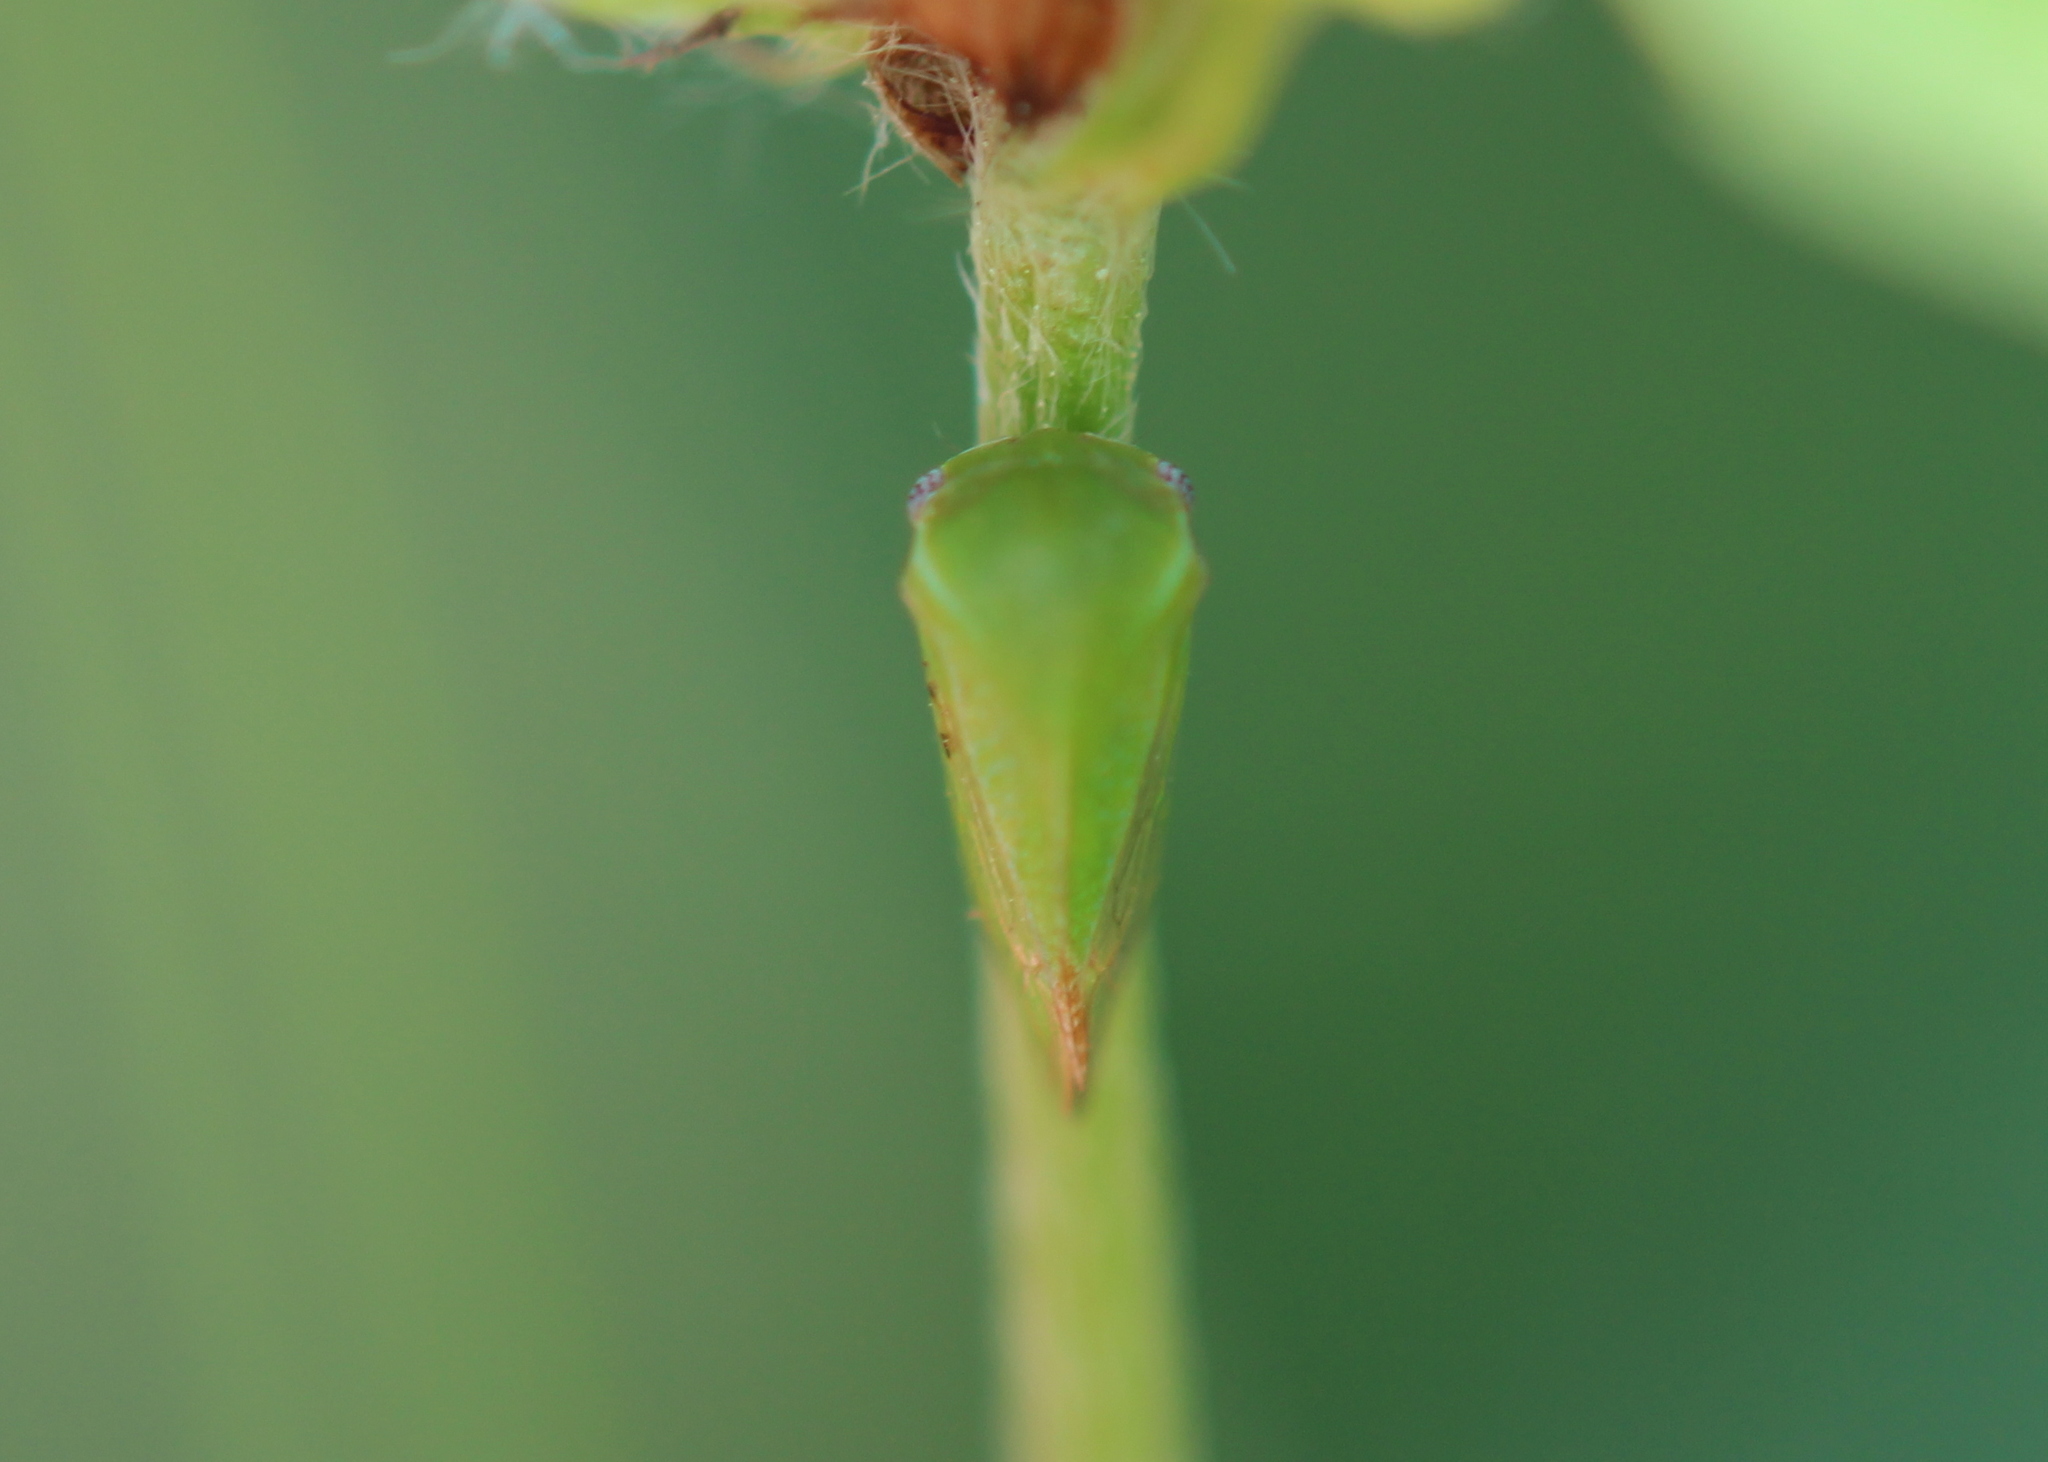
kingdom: Animalia
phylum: Arthropoda
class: Insecta
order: Hemiptera
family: Membracidae
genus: Stictocephala
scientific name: Stictocephala lutea
